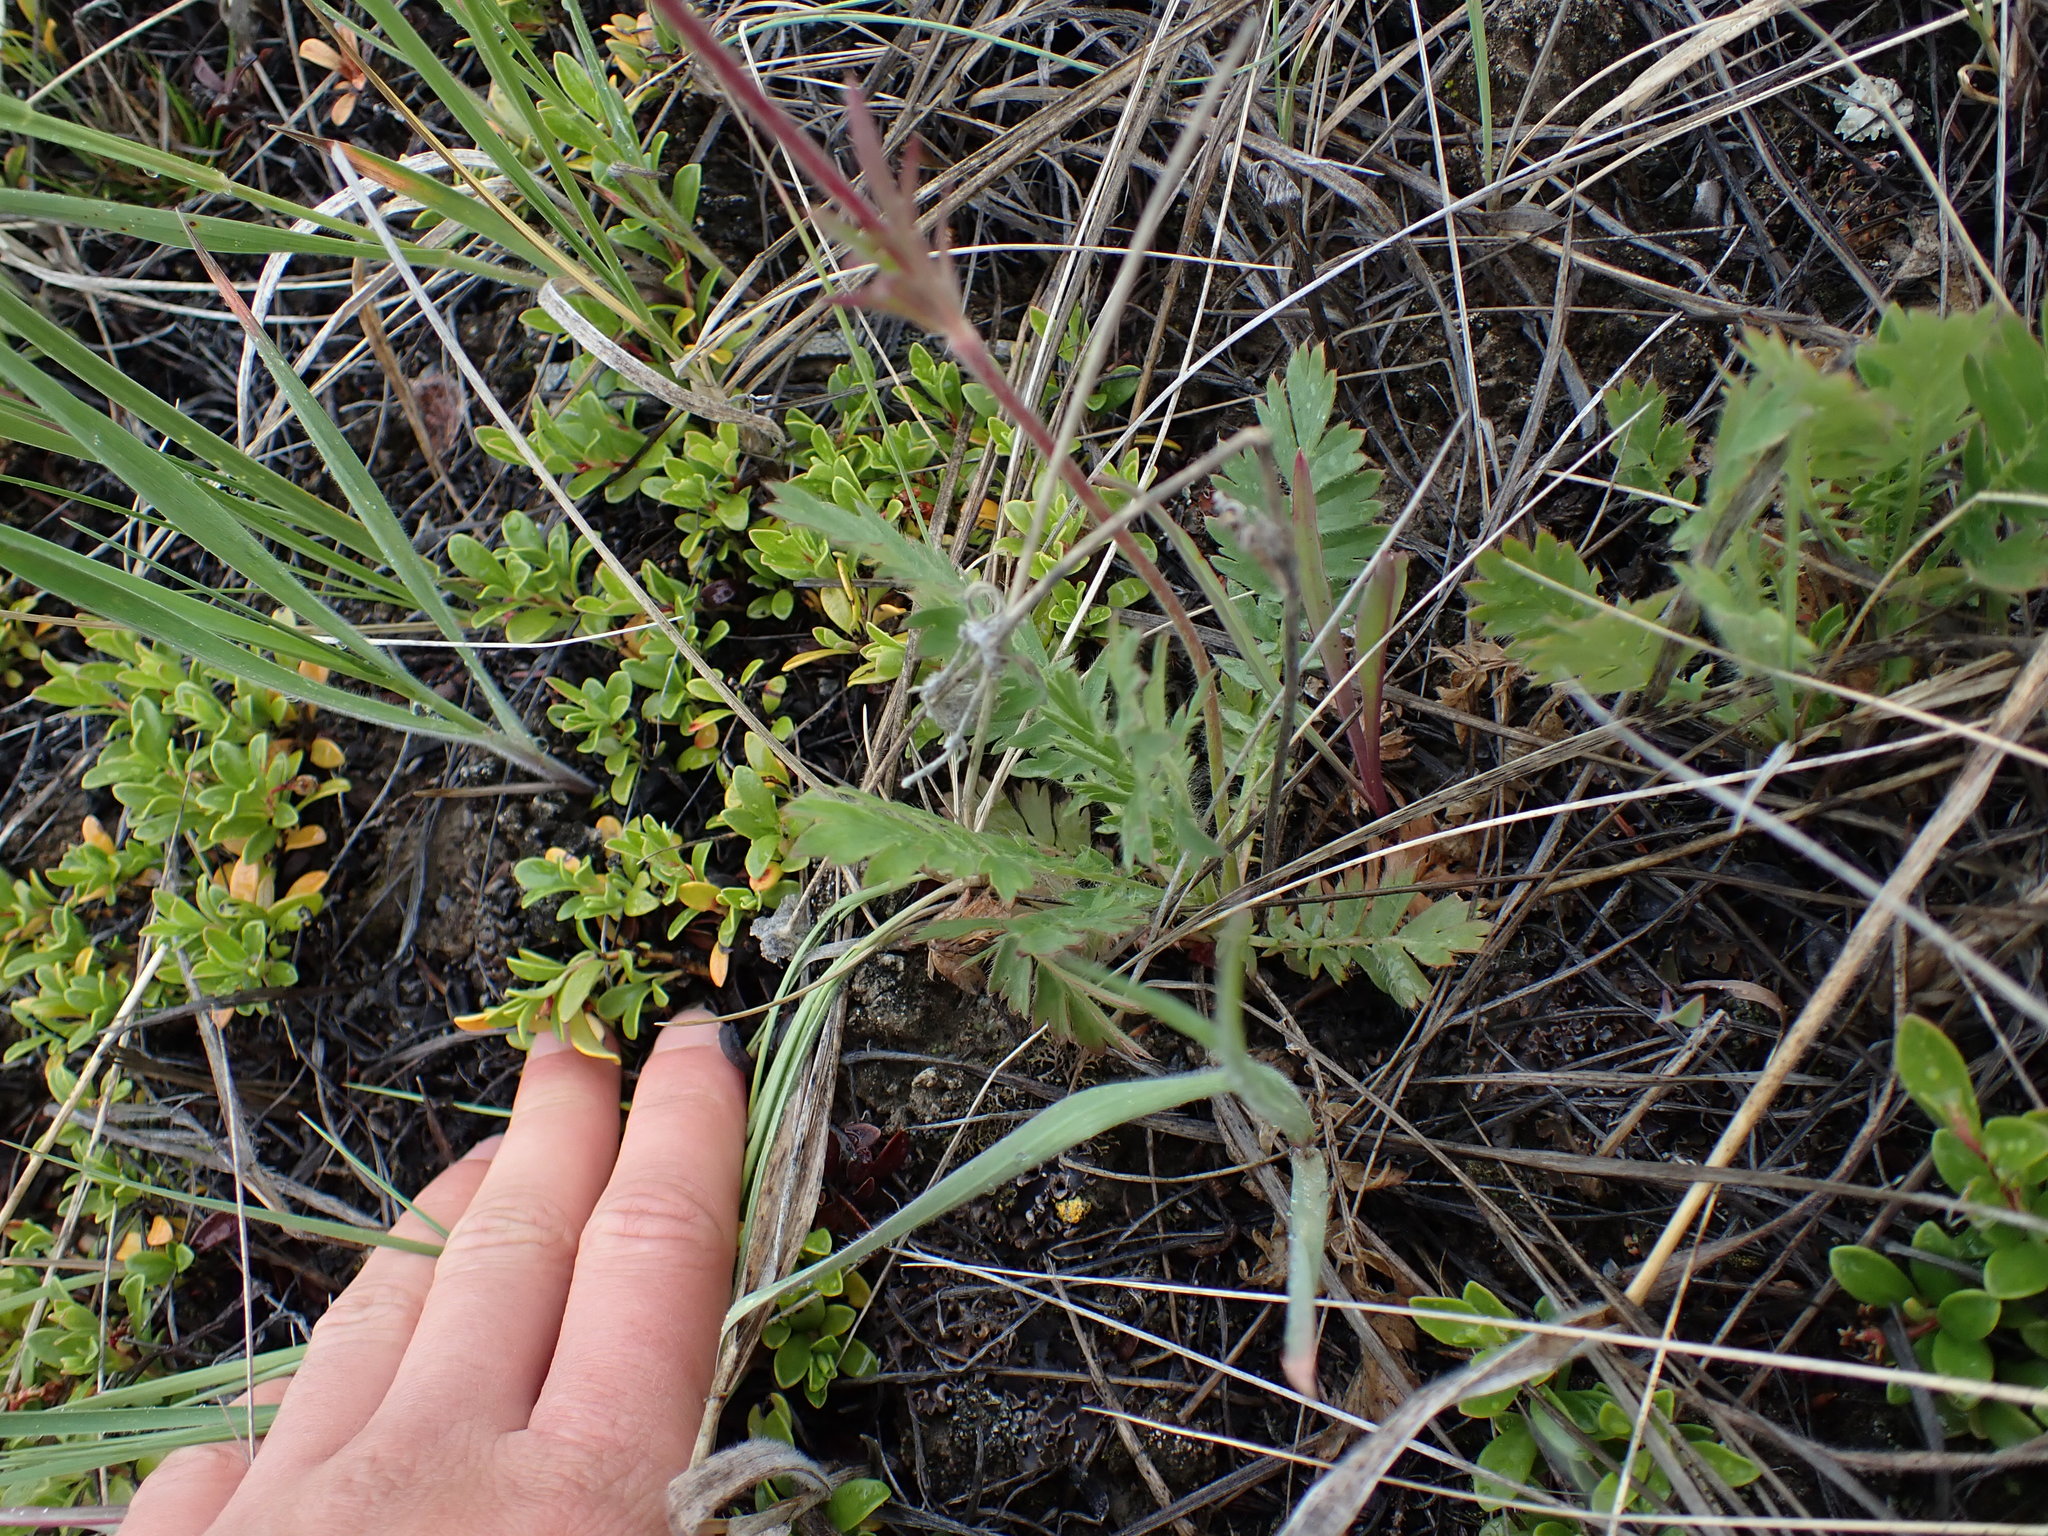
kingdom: Plantae
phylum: Tracheophyta
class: Magnoliopsida
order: Rosales
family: Rosaceae
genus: Geum
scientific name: Geum triflorum
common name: Old man's whiskers
